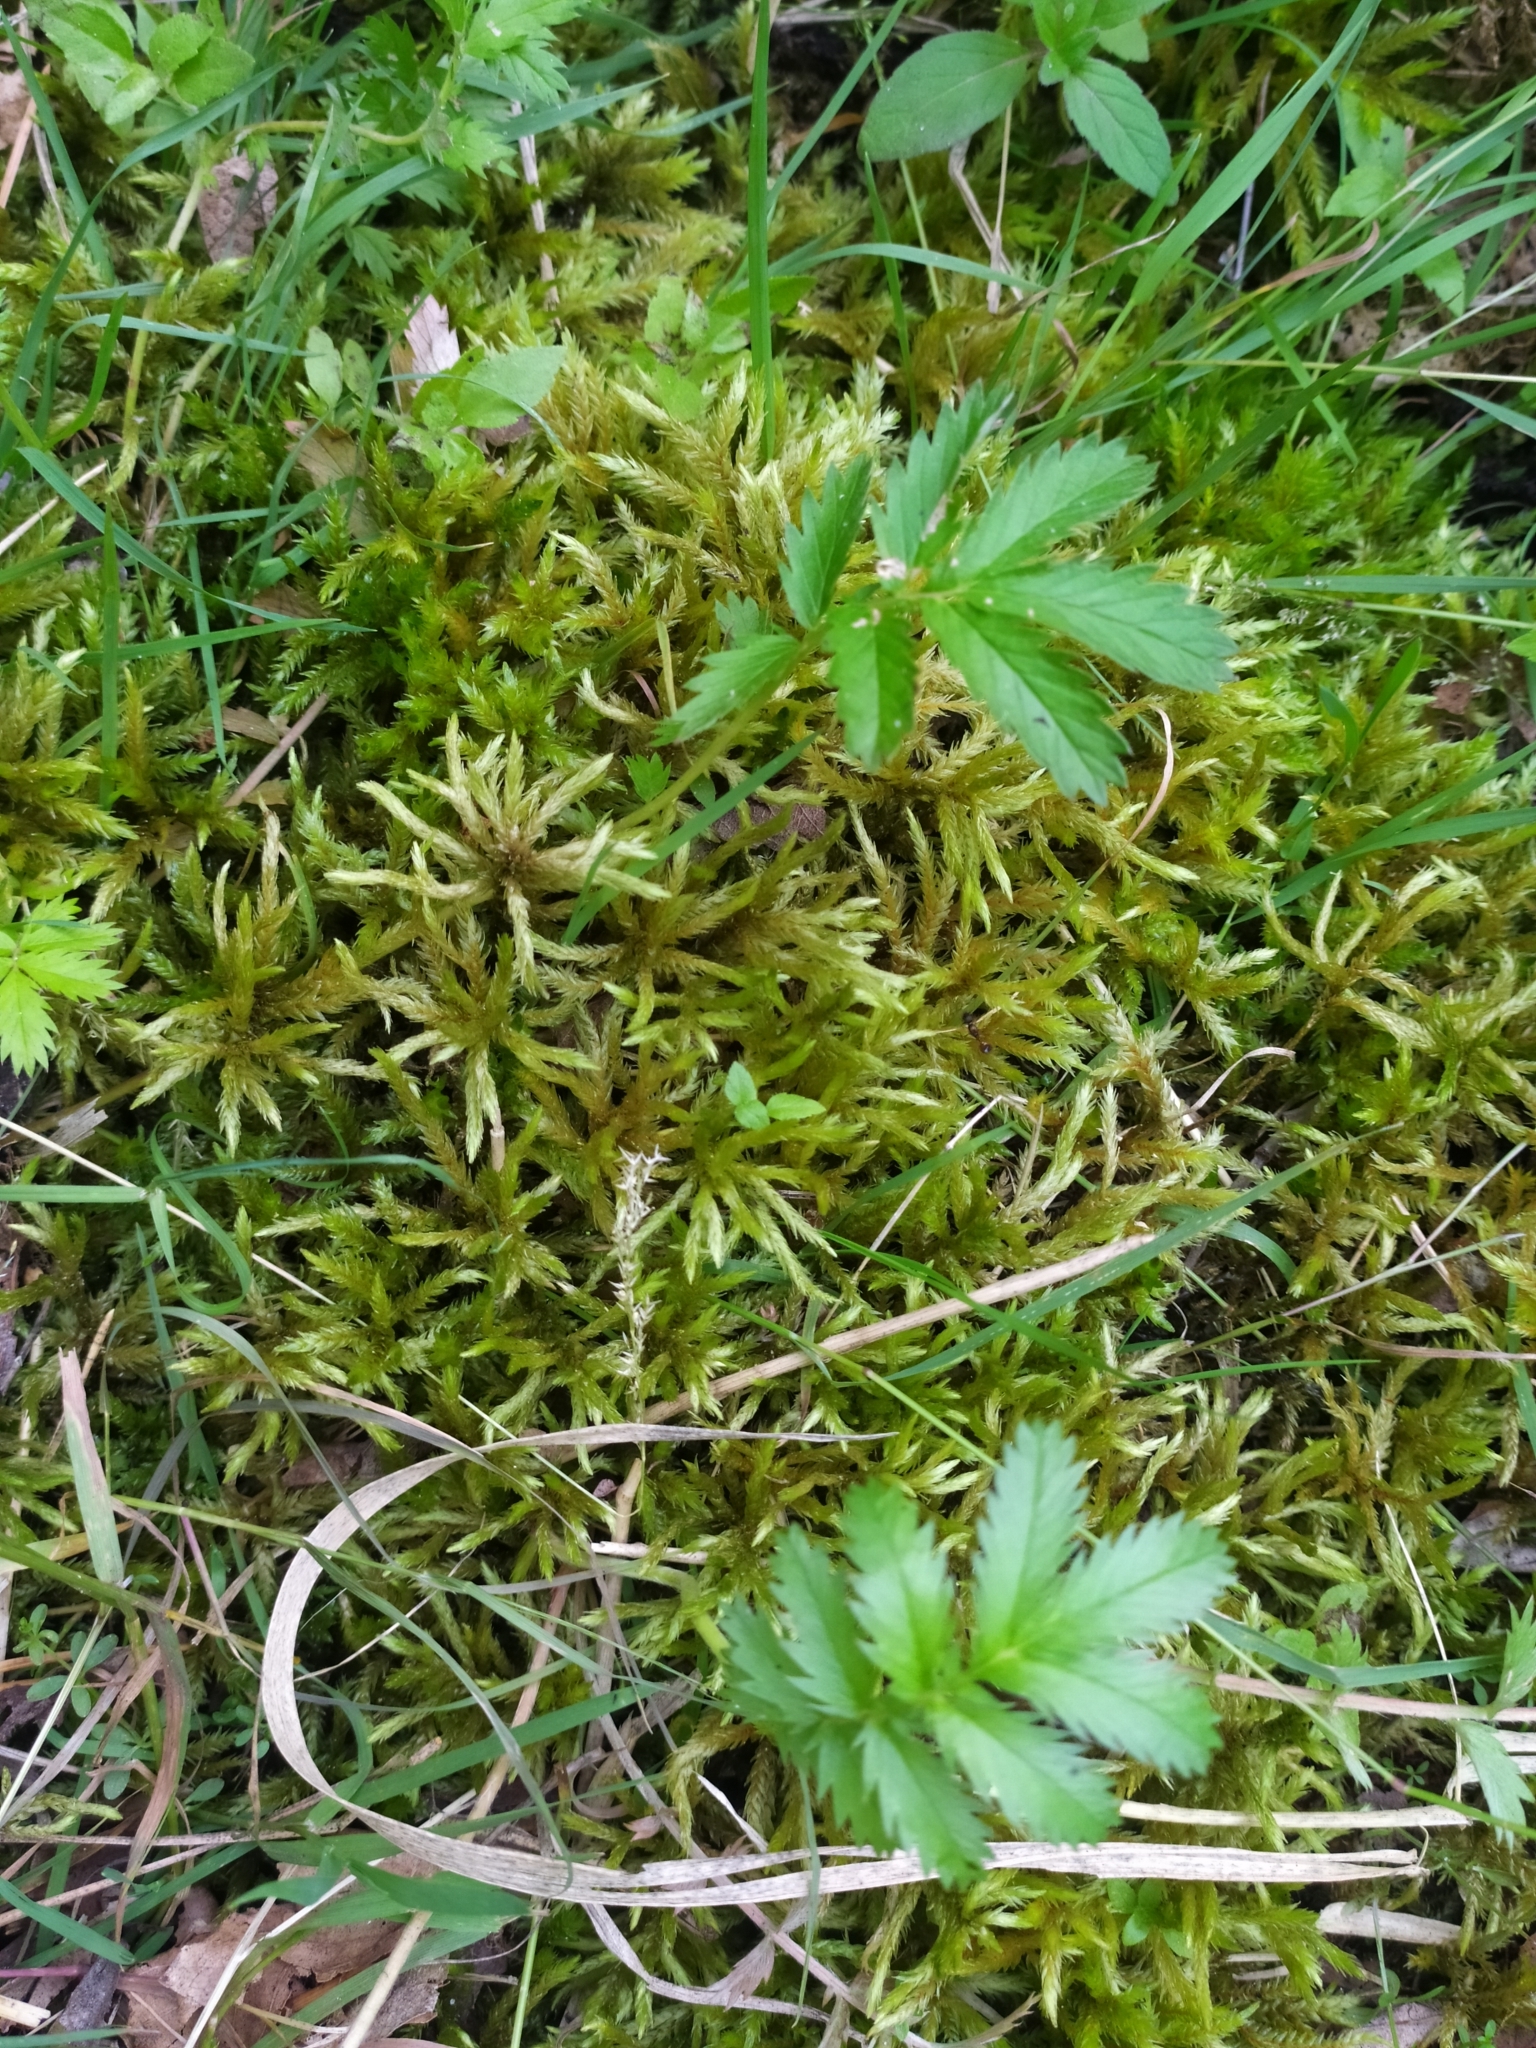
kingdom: Plantae
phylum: Bryophyta
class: Bryopsida
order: Hypnales
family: Climaciaceae
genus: Climacium
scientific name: Climacium dendroides
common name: Northern tree moss
